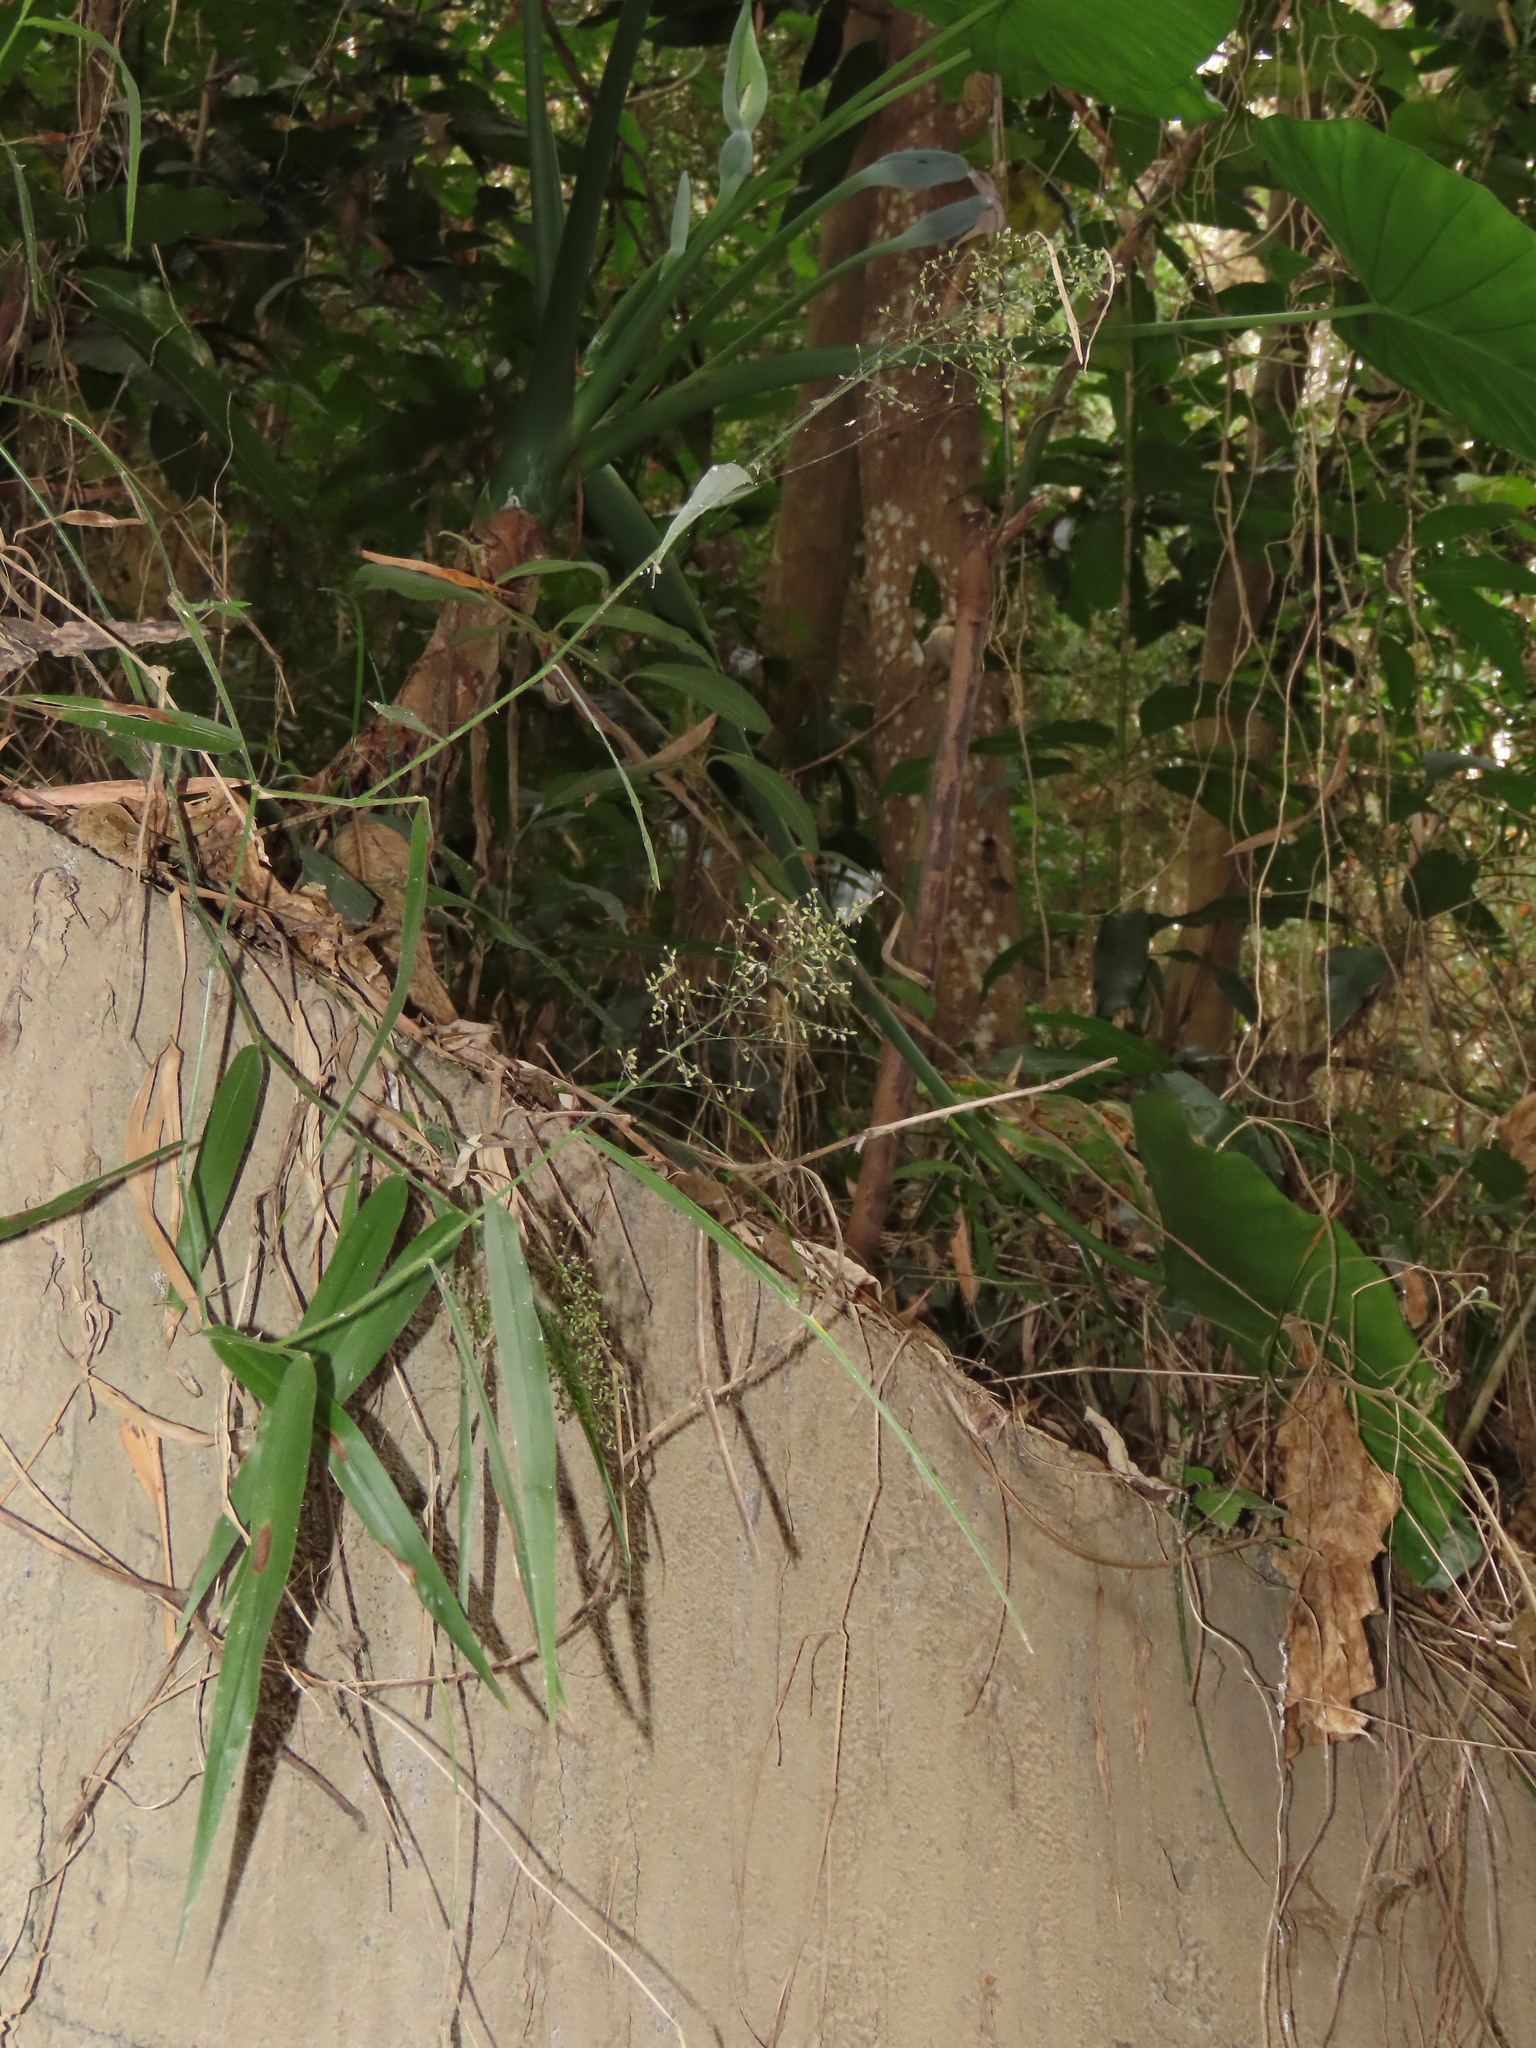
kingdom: Plantae
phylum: Tracheophyta
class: Liliopsida
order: Poales
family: Poaceae
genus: Panicum
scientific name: Panicum sarmentosum
